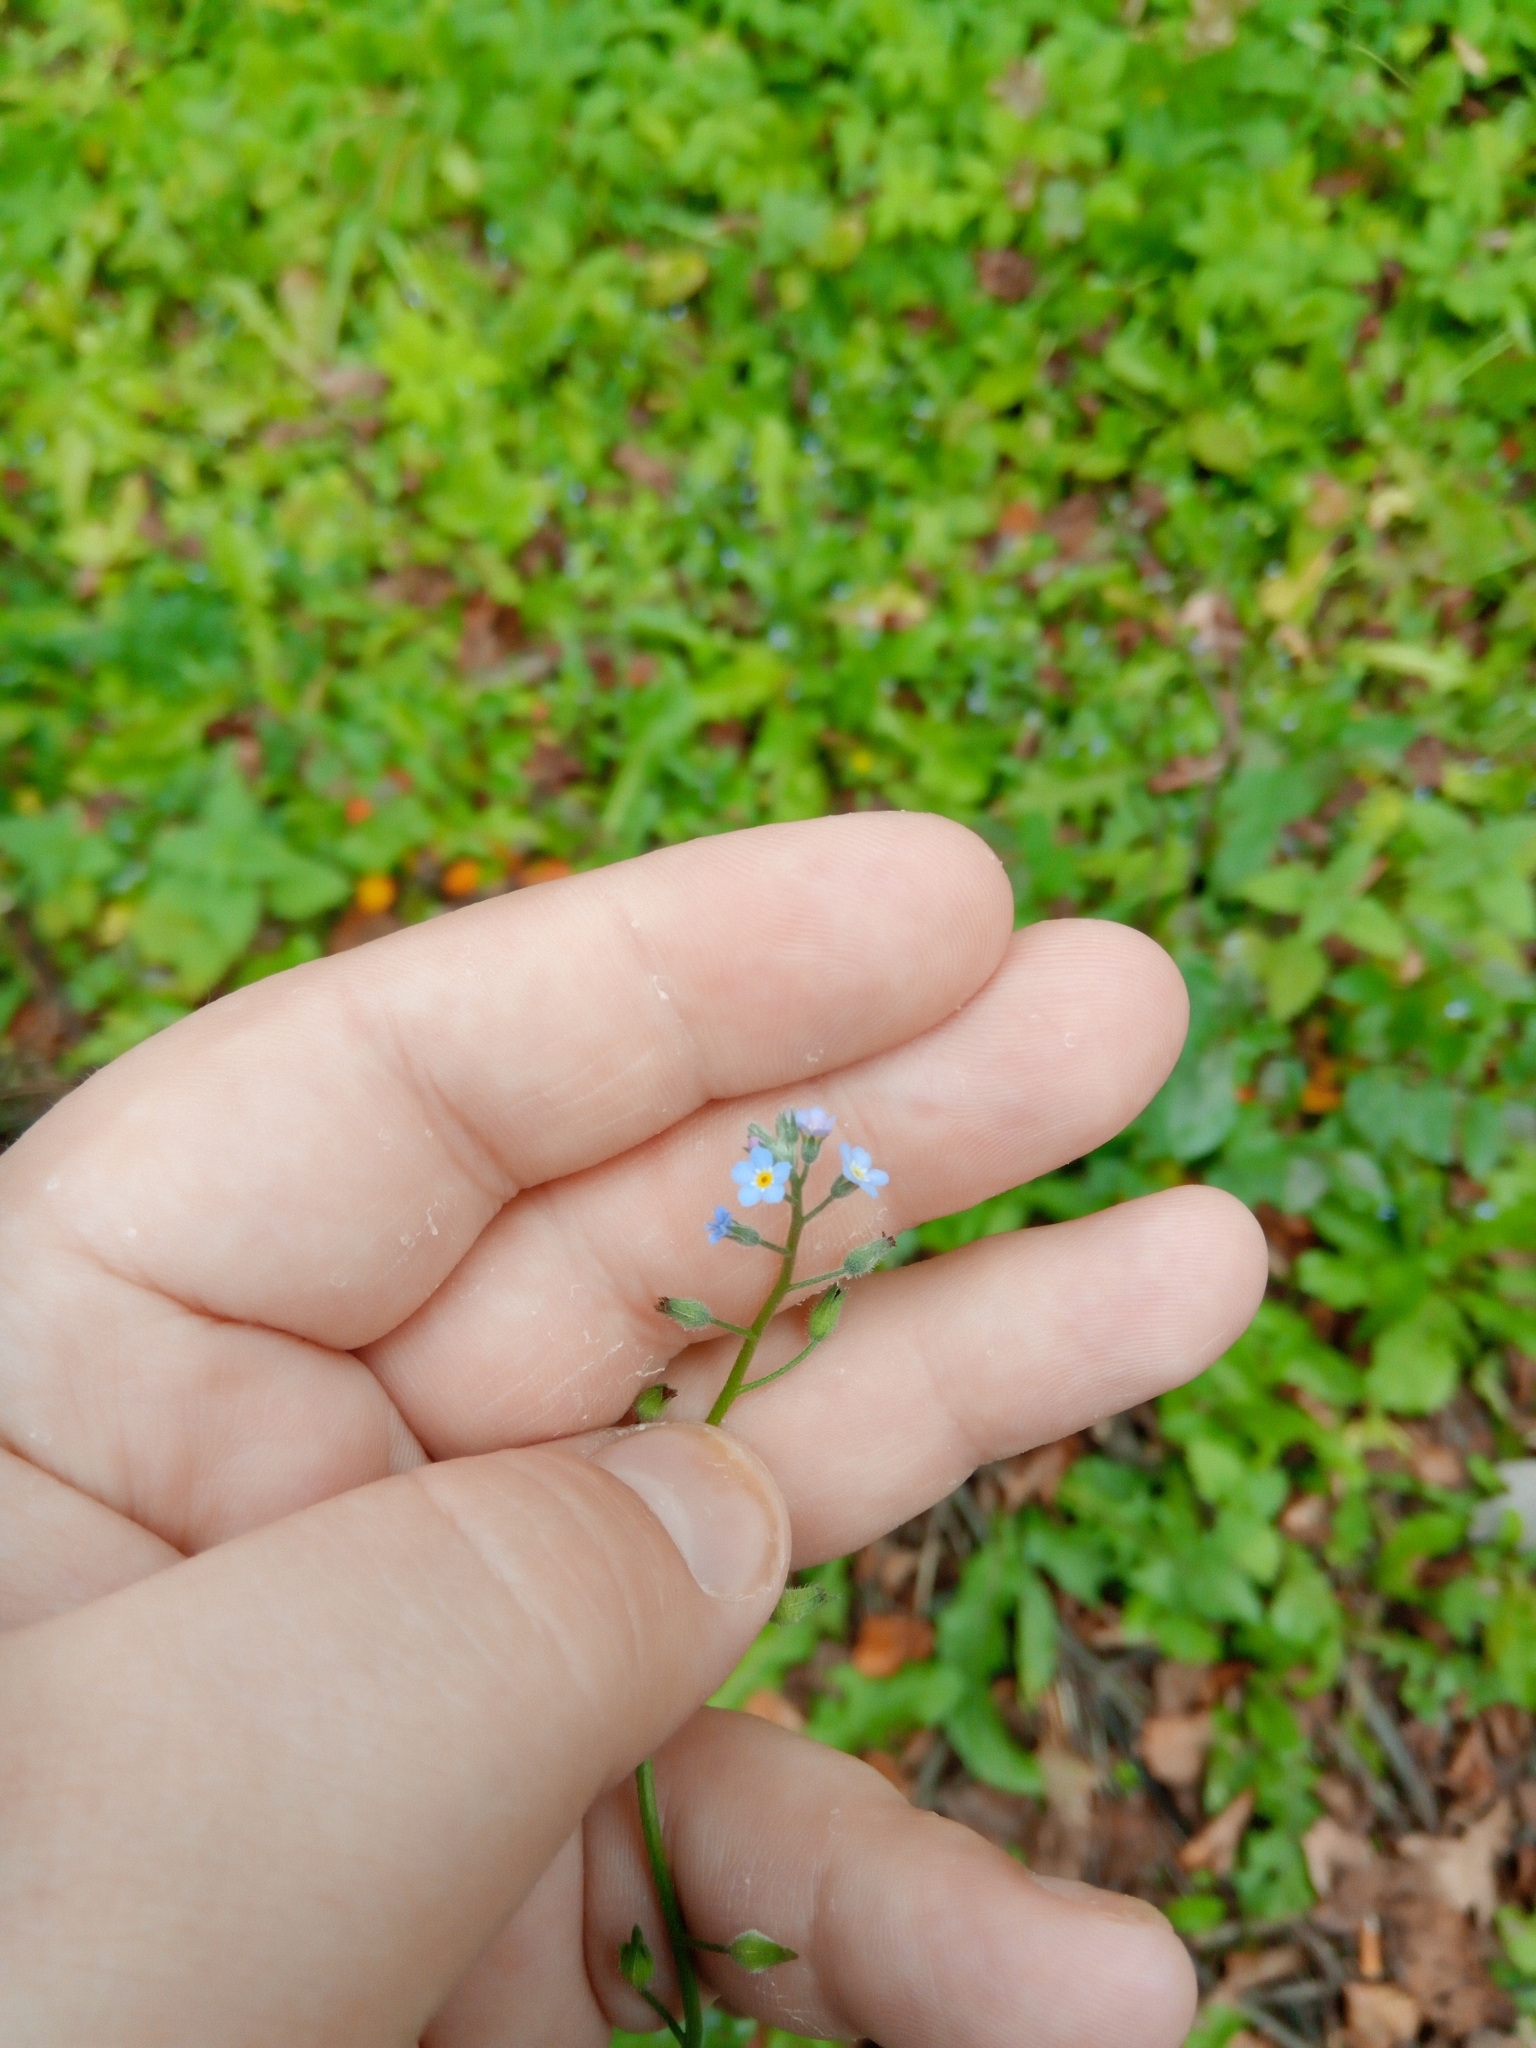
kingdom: Plantae
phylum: Tracheophyta
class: Magnoliopsida
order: Boraginales
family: Boraginaceae
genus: Myosotis
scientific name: Myosotis arvensis
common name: Field forget-me-not
